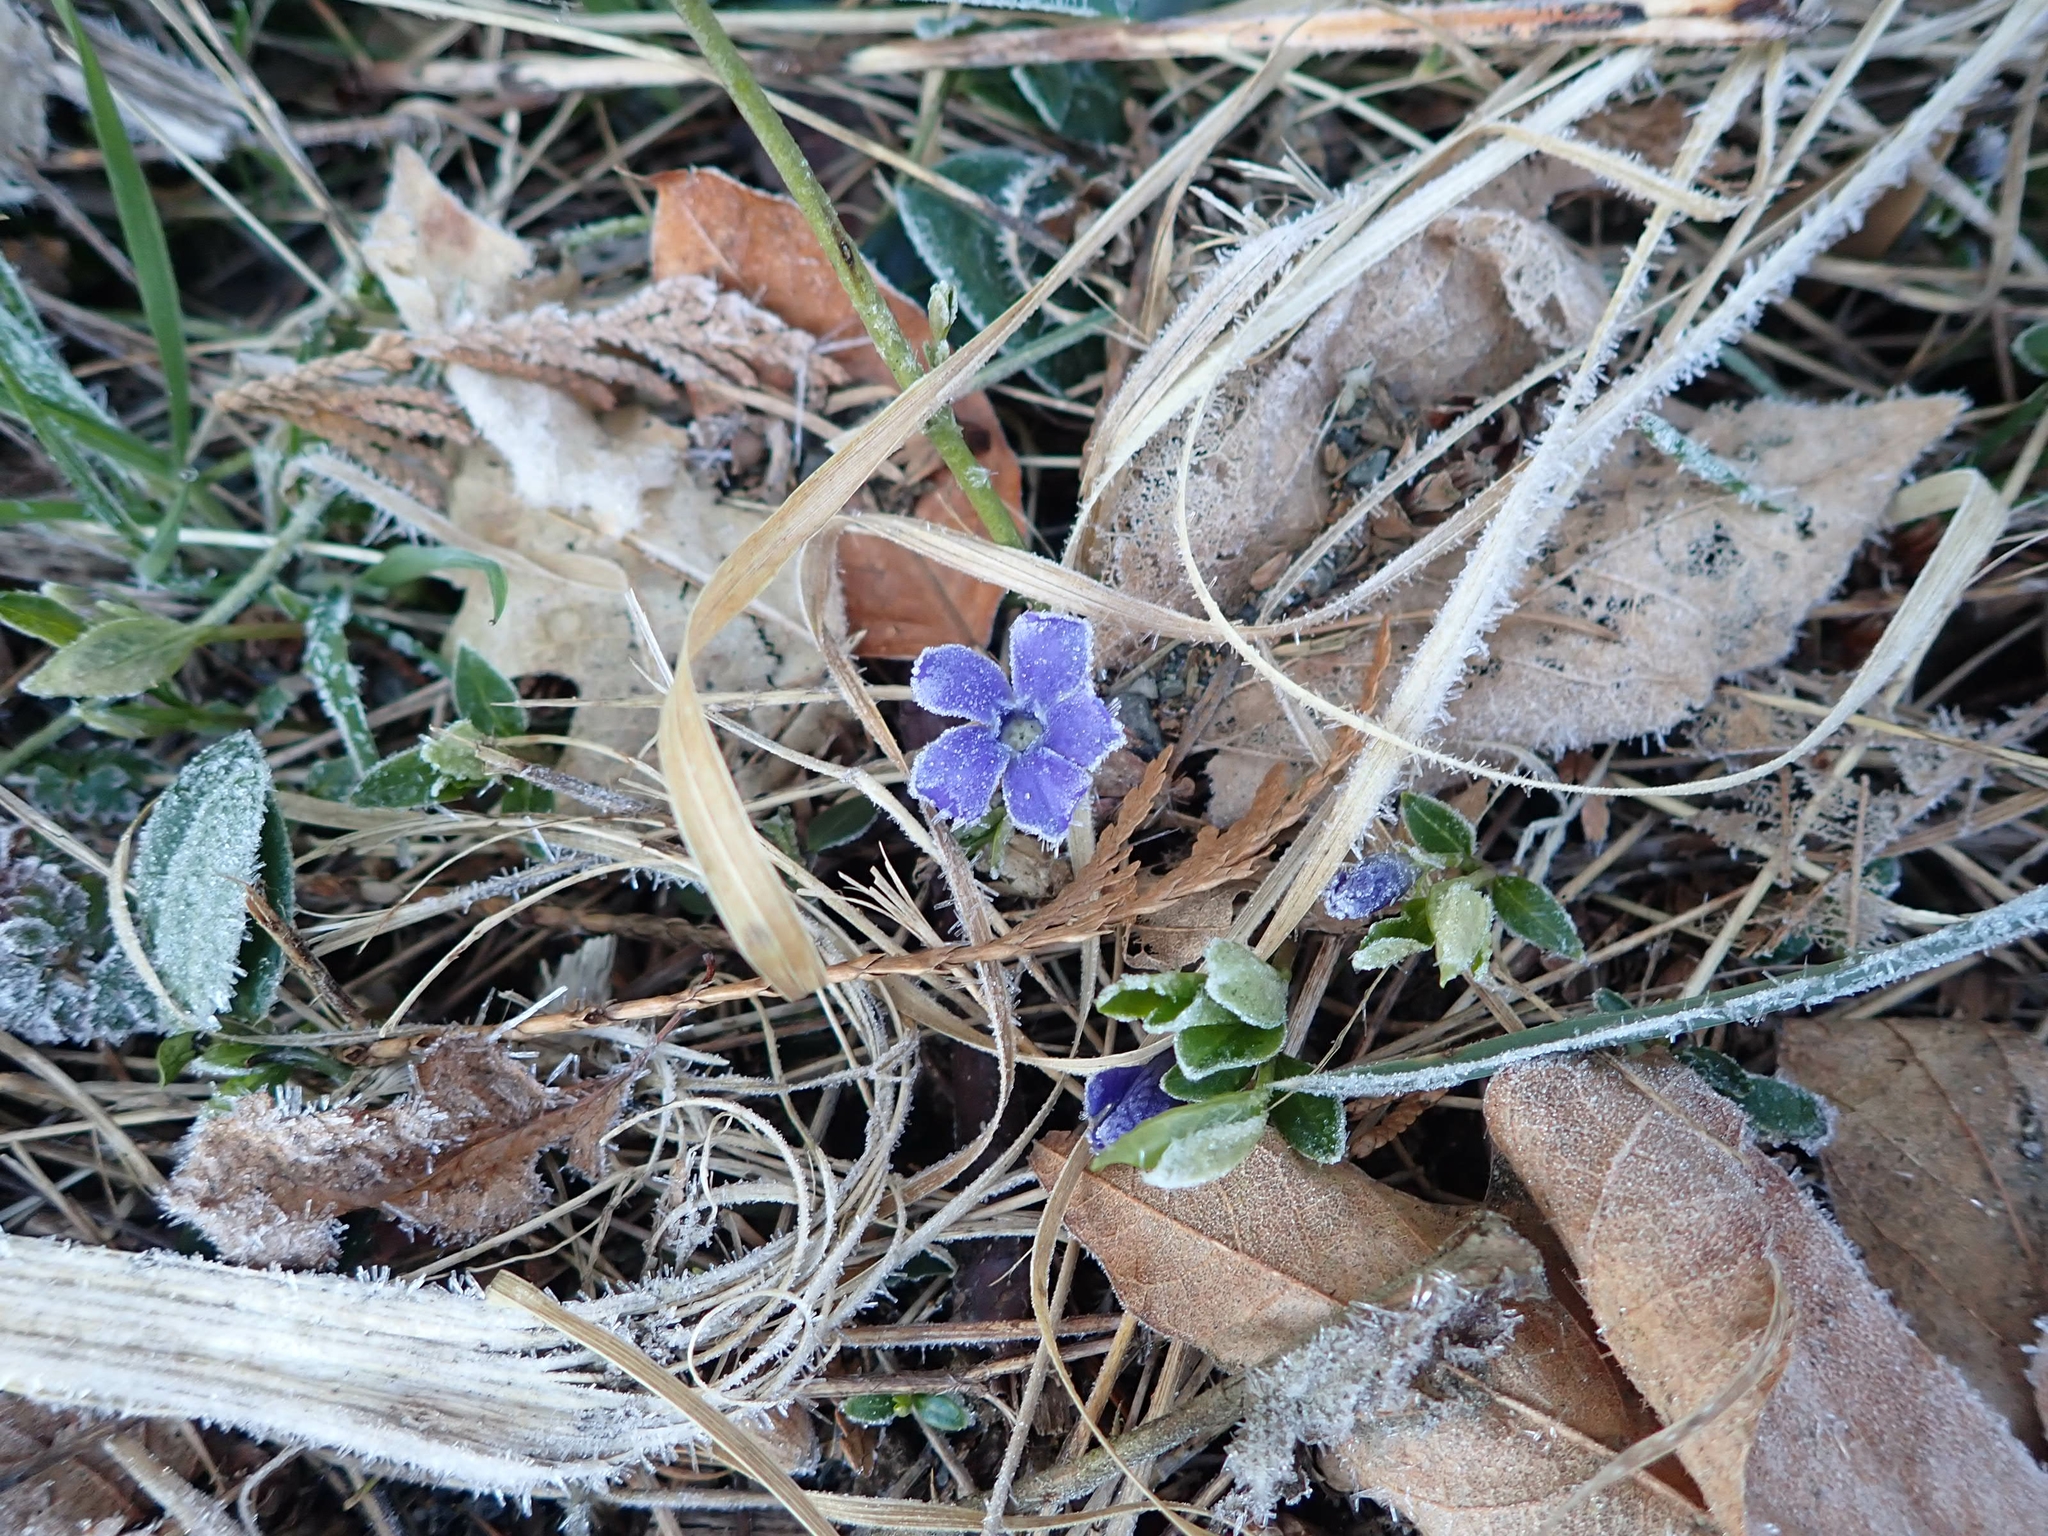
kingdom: Plantae
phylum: Tracheophyta
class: Magnoliopsida
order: Gentianales
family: Apocynaceae
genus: Vinca
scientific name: Vinca minor
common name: Lesser periwinkle
